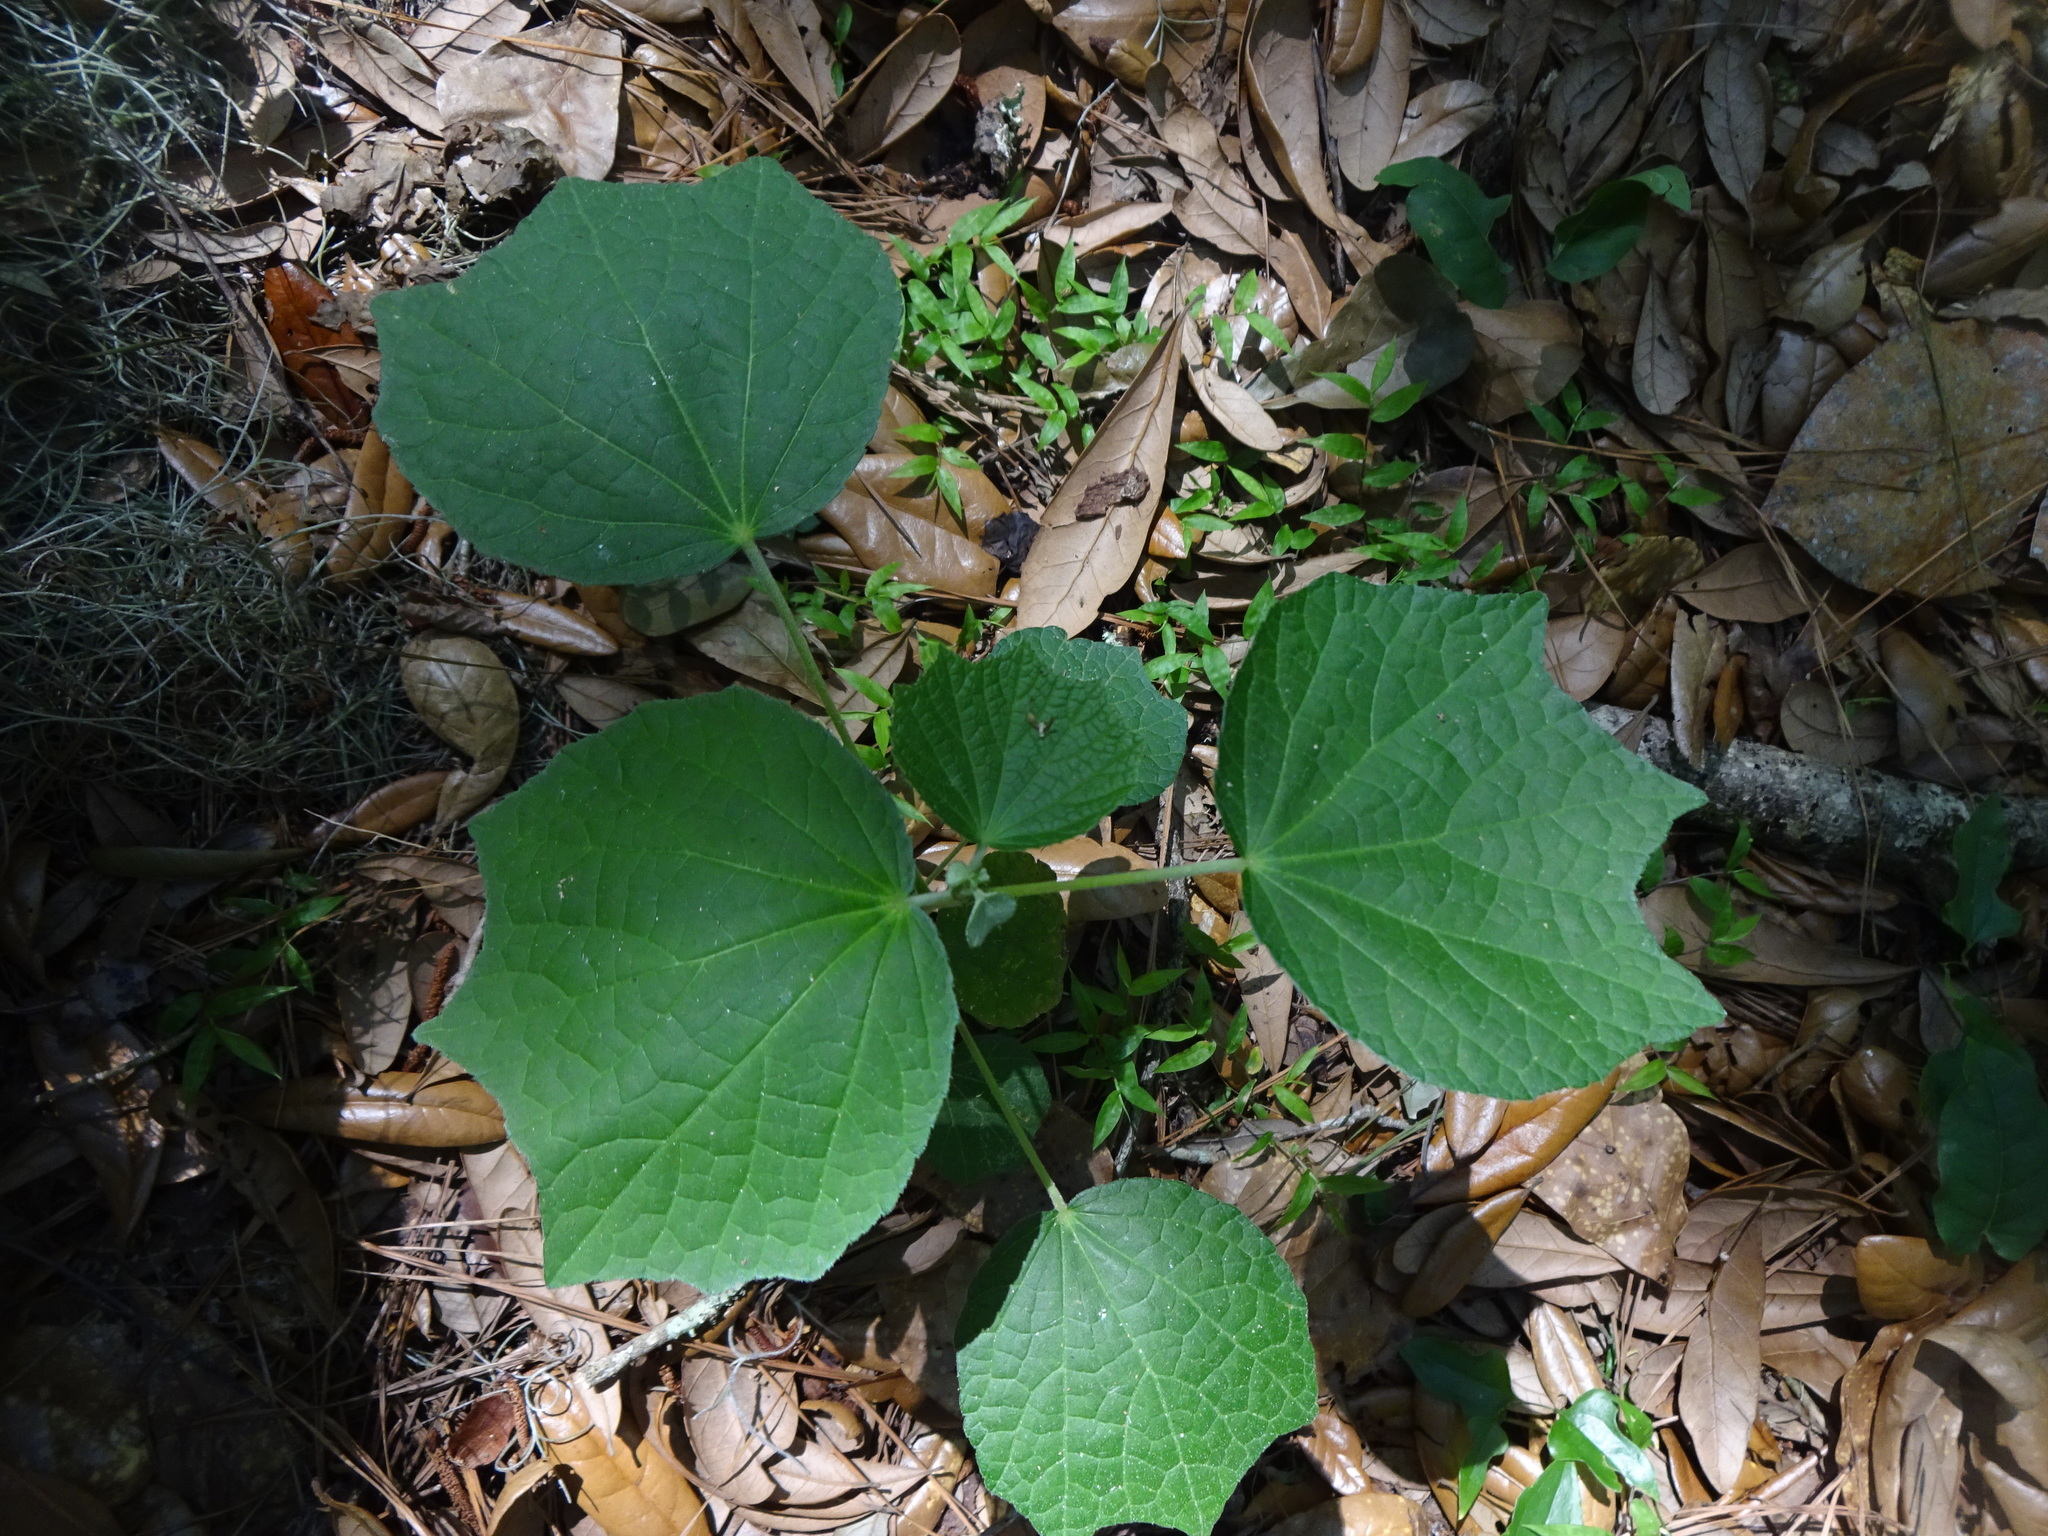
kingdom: Plantae
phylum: Tracheophyta
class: Magnoliopsida
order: Malvales
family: Malvaceae
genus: Urena
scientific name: Urena lobata
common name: Caesarweed
